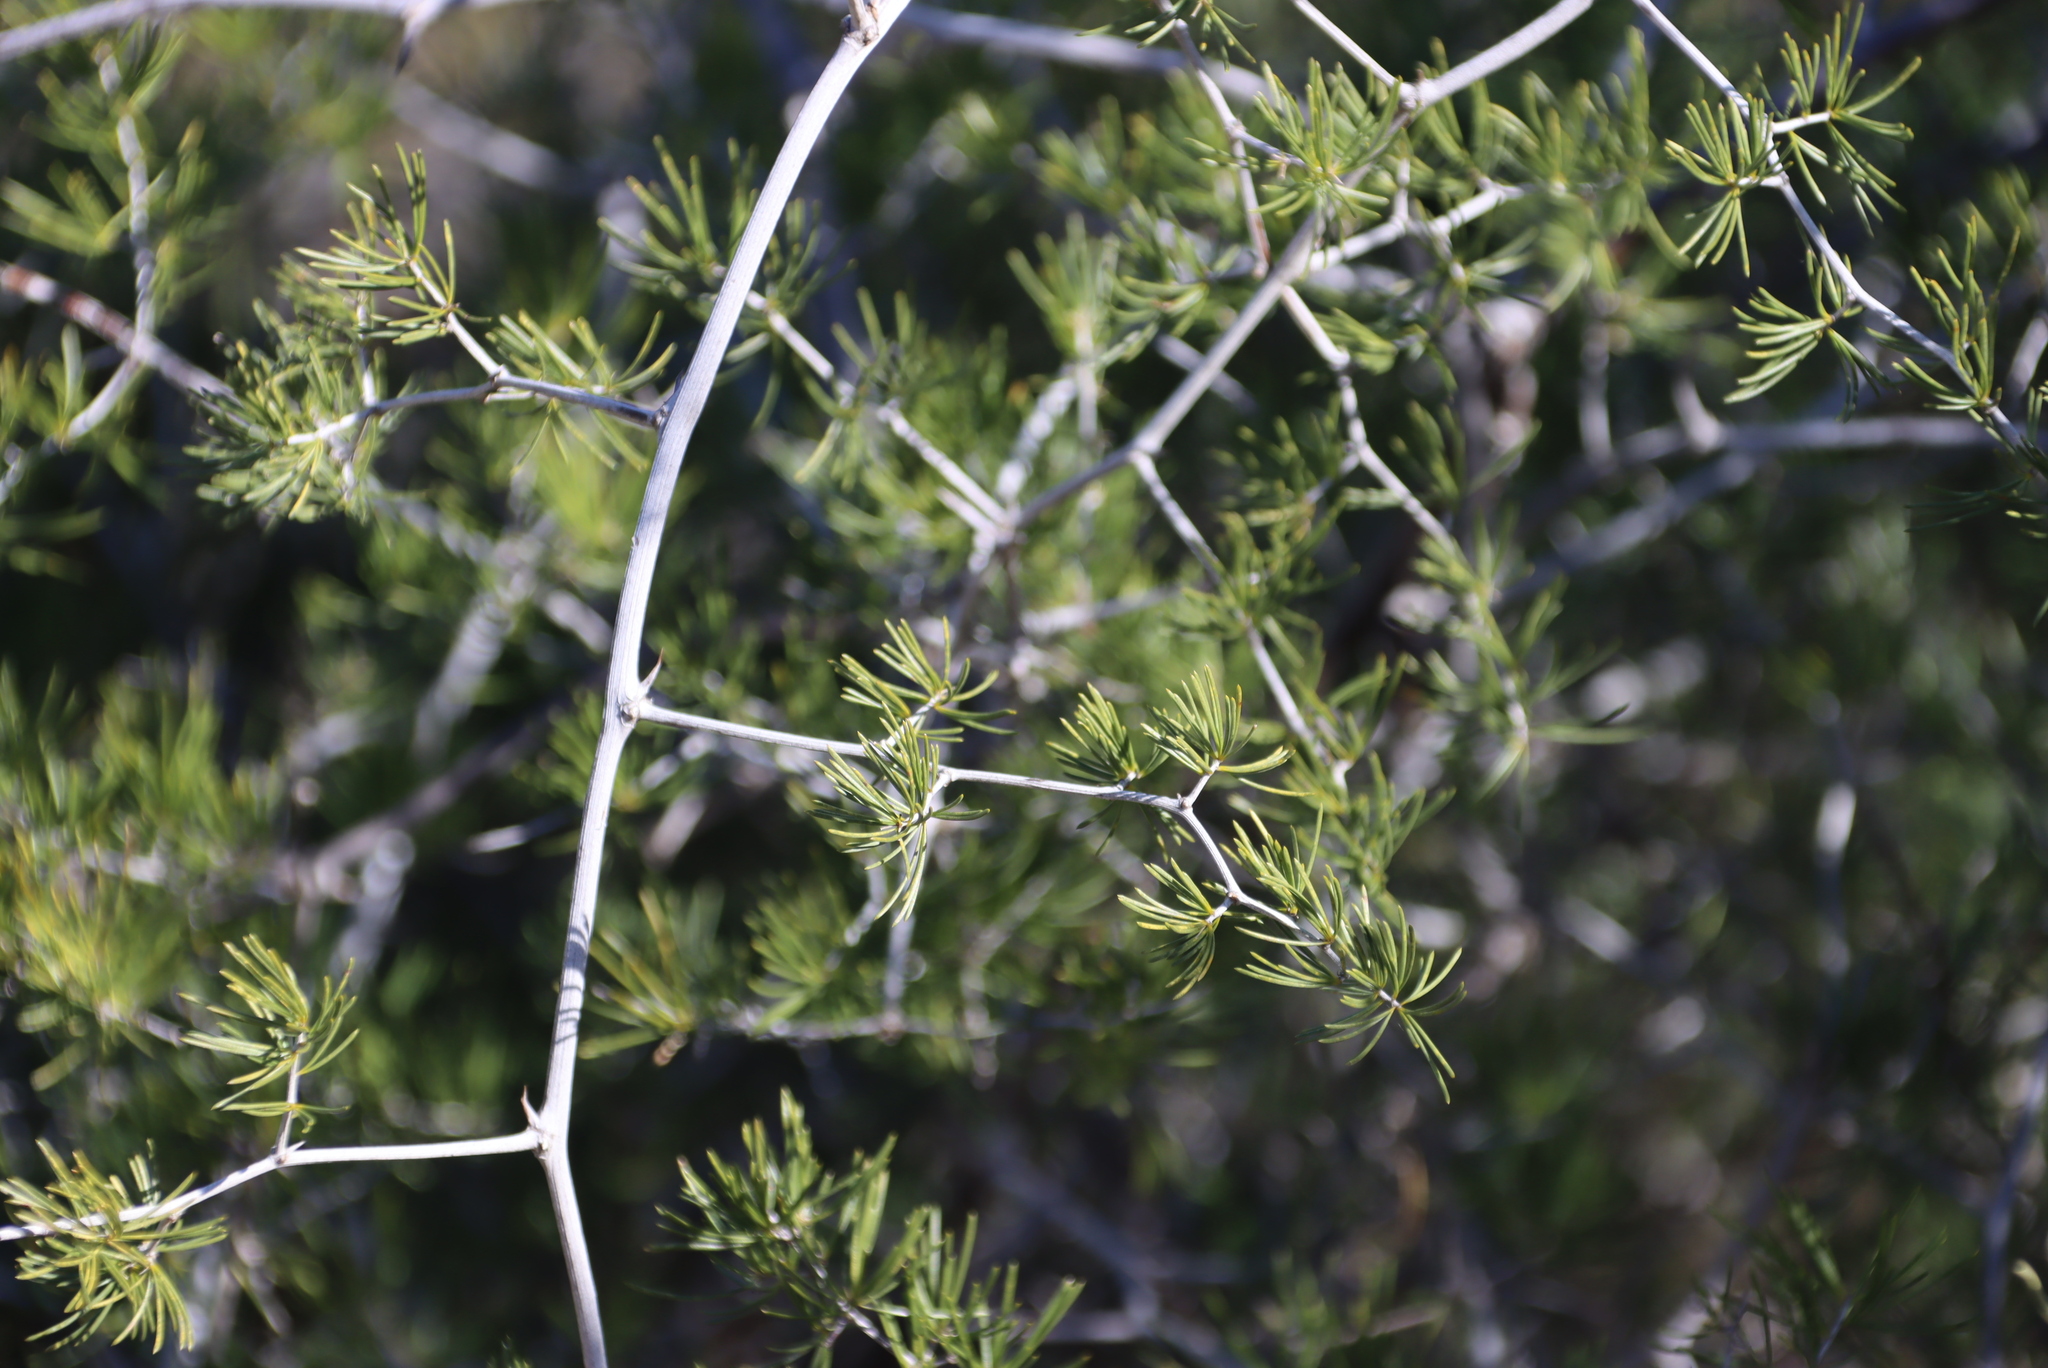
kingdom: Plantae
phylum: Tracheophyta
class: Liliopsida
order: Asparagales
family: Asparagaceae
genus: Asparagus
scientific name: Asparagus retrofractus
